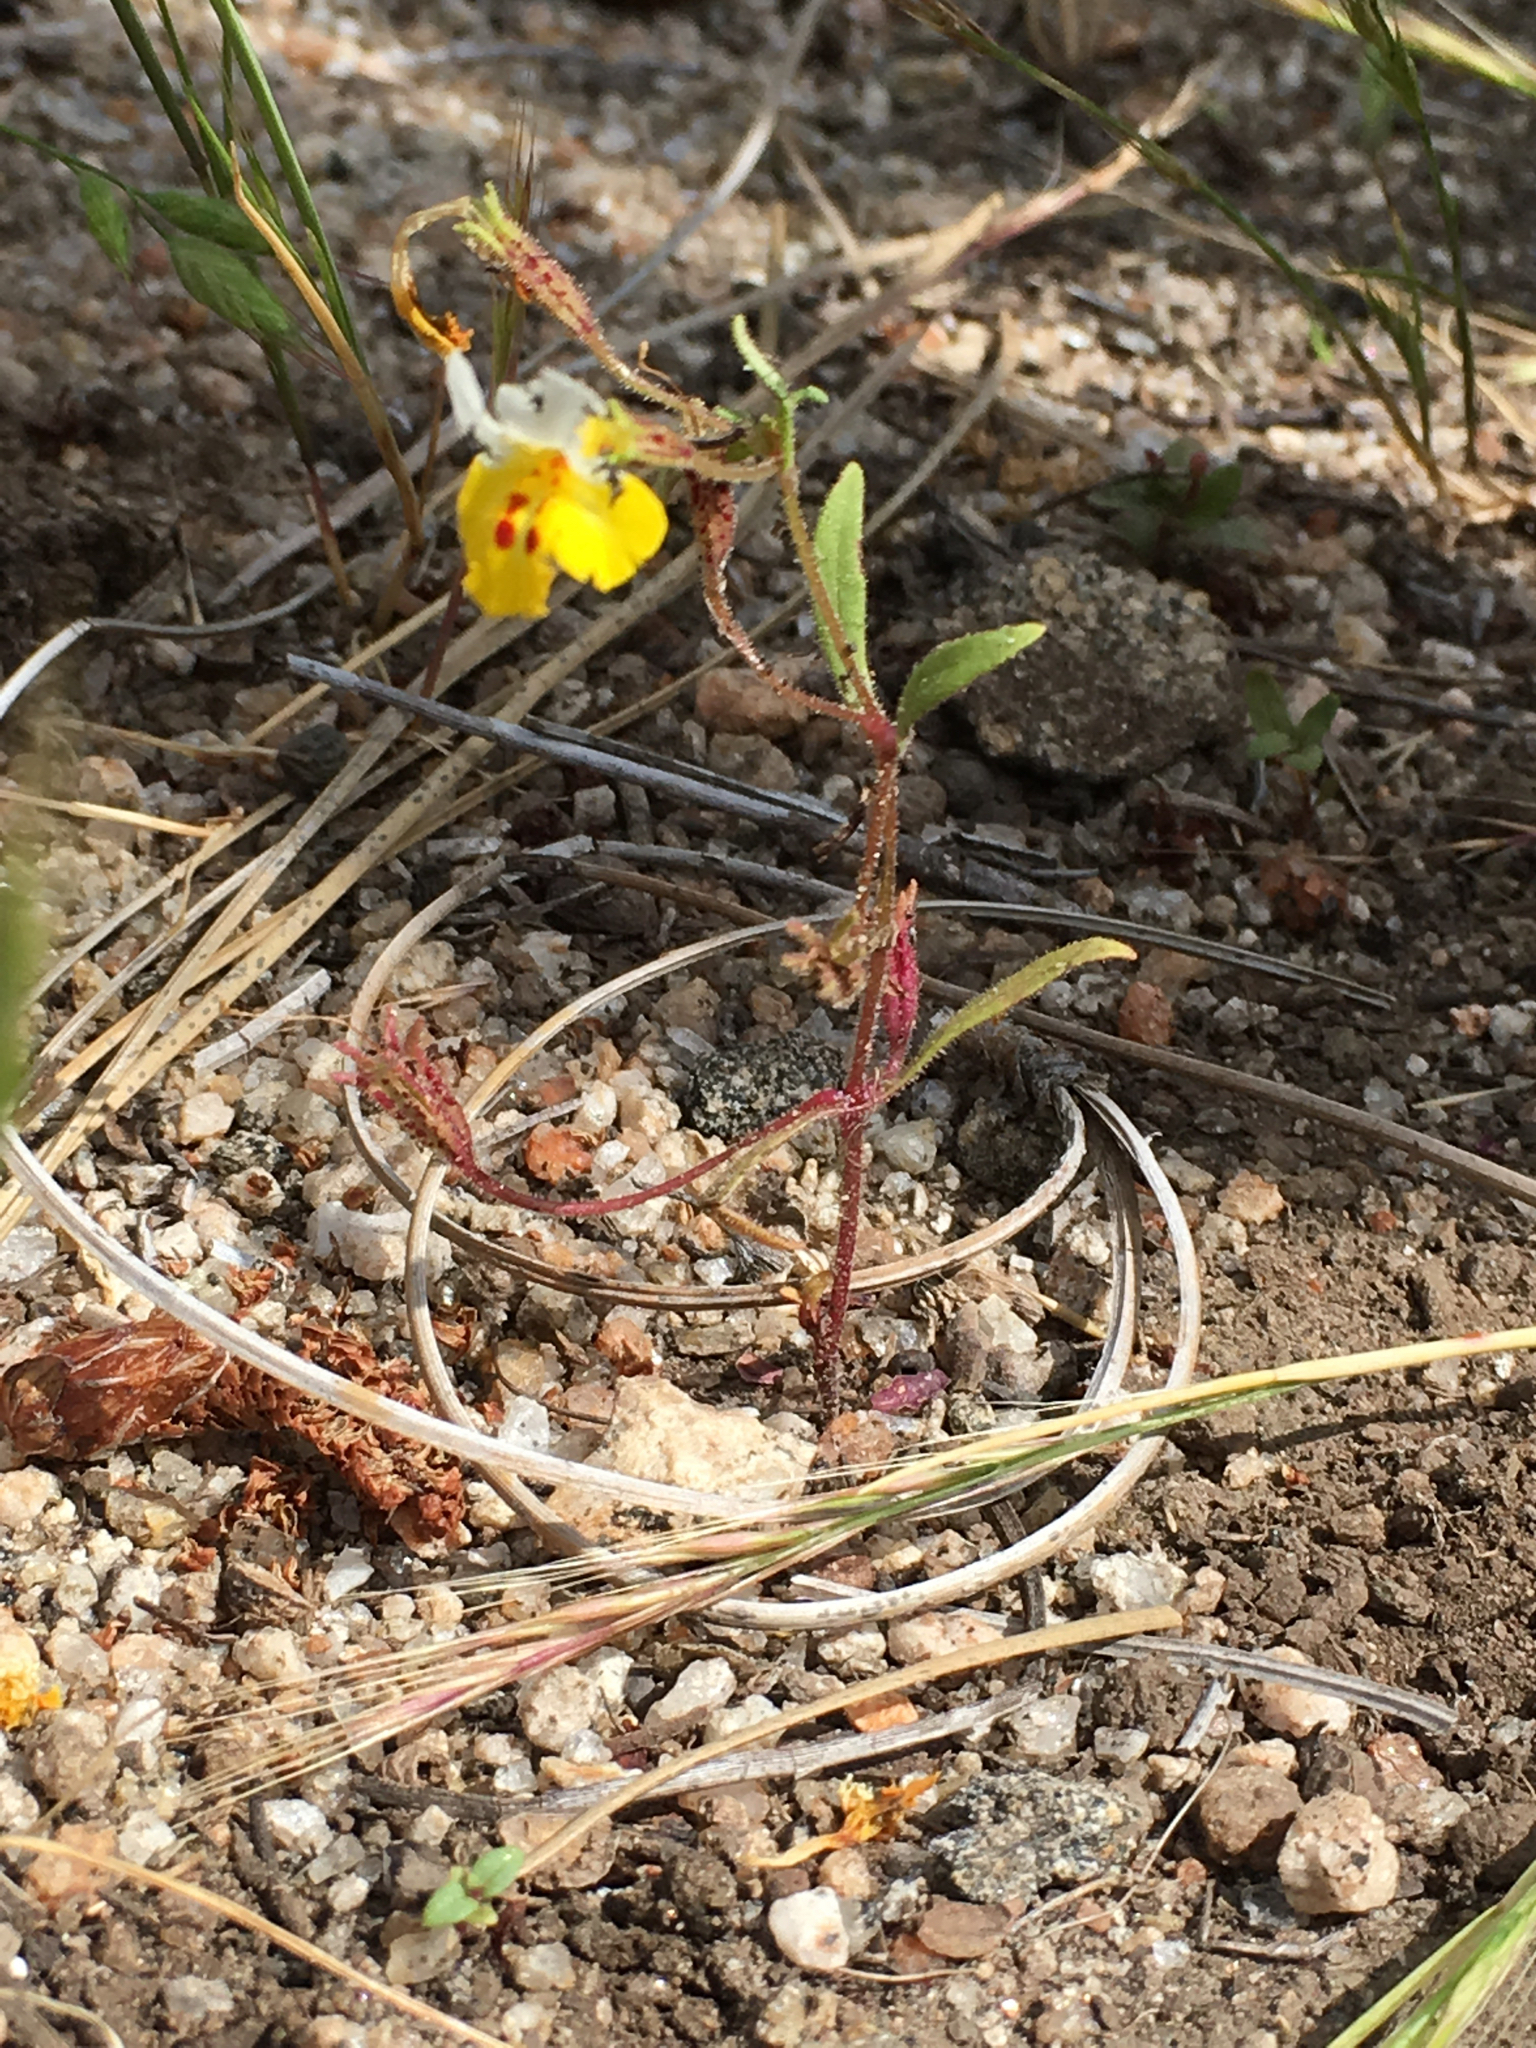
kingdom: Plantae
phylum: Tracheophyta
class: Magnoliopsida
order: Lamiales
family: Phrymaceae
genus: Erythranthe
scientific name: Erythranthe bicolor
